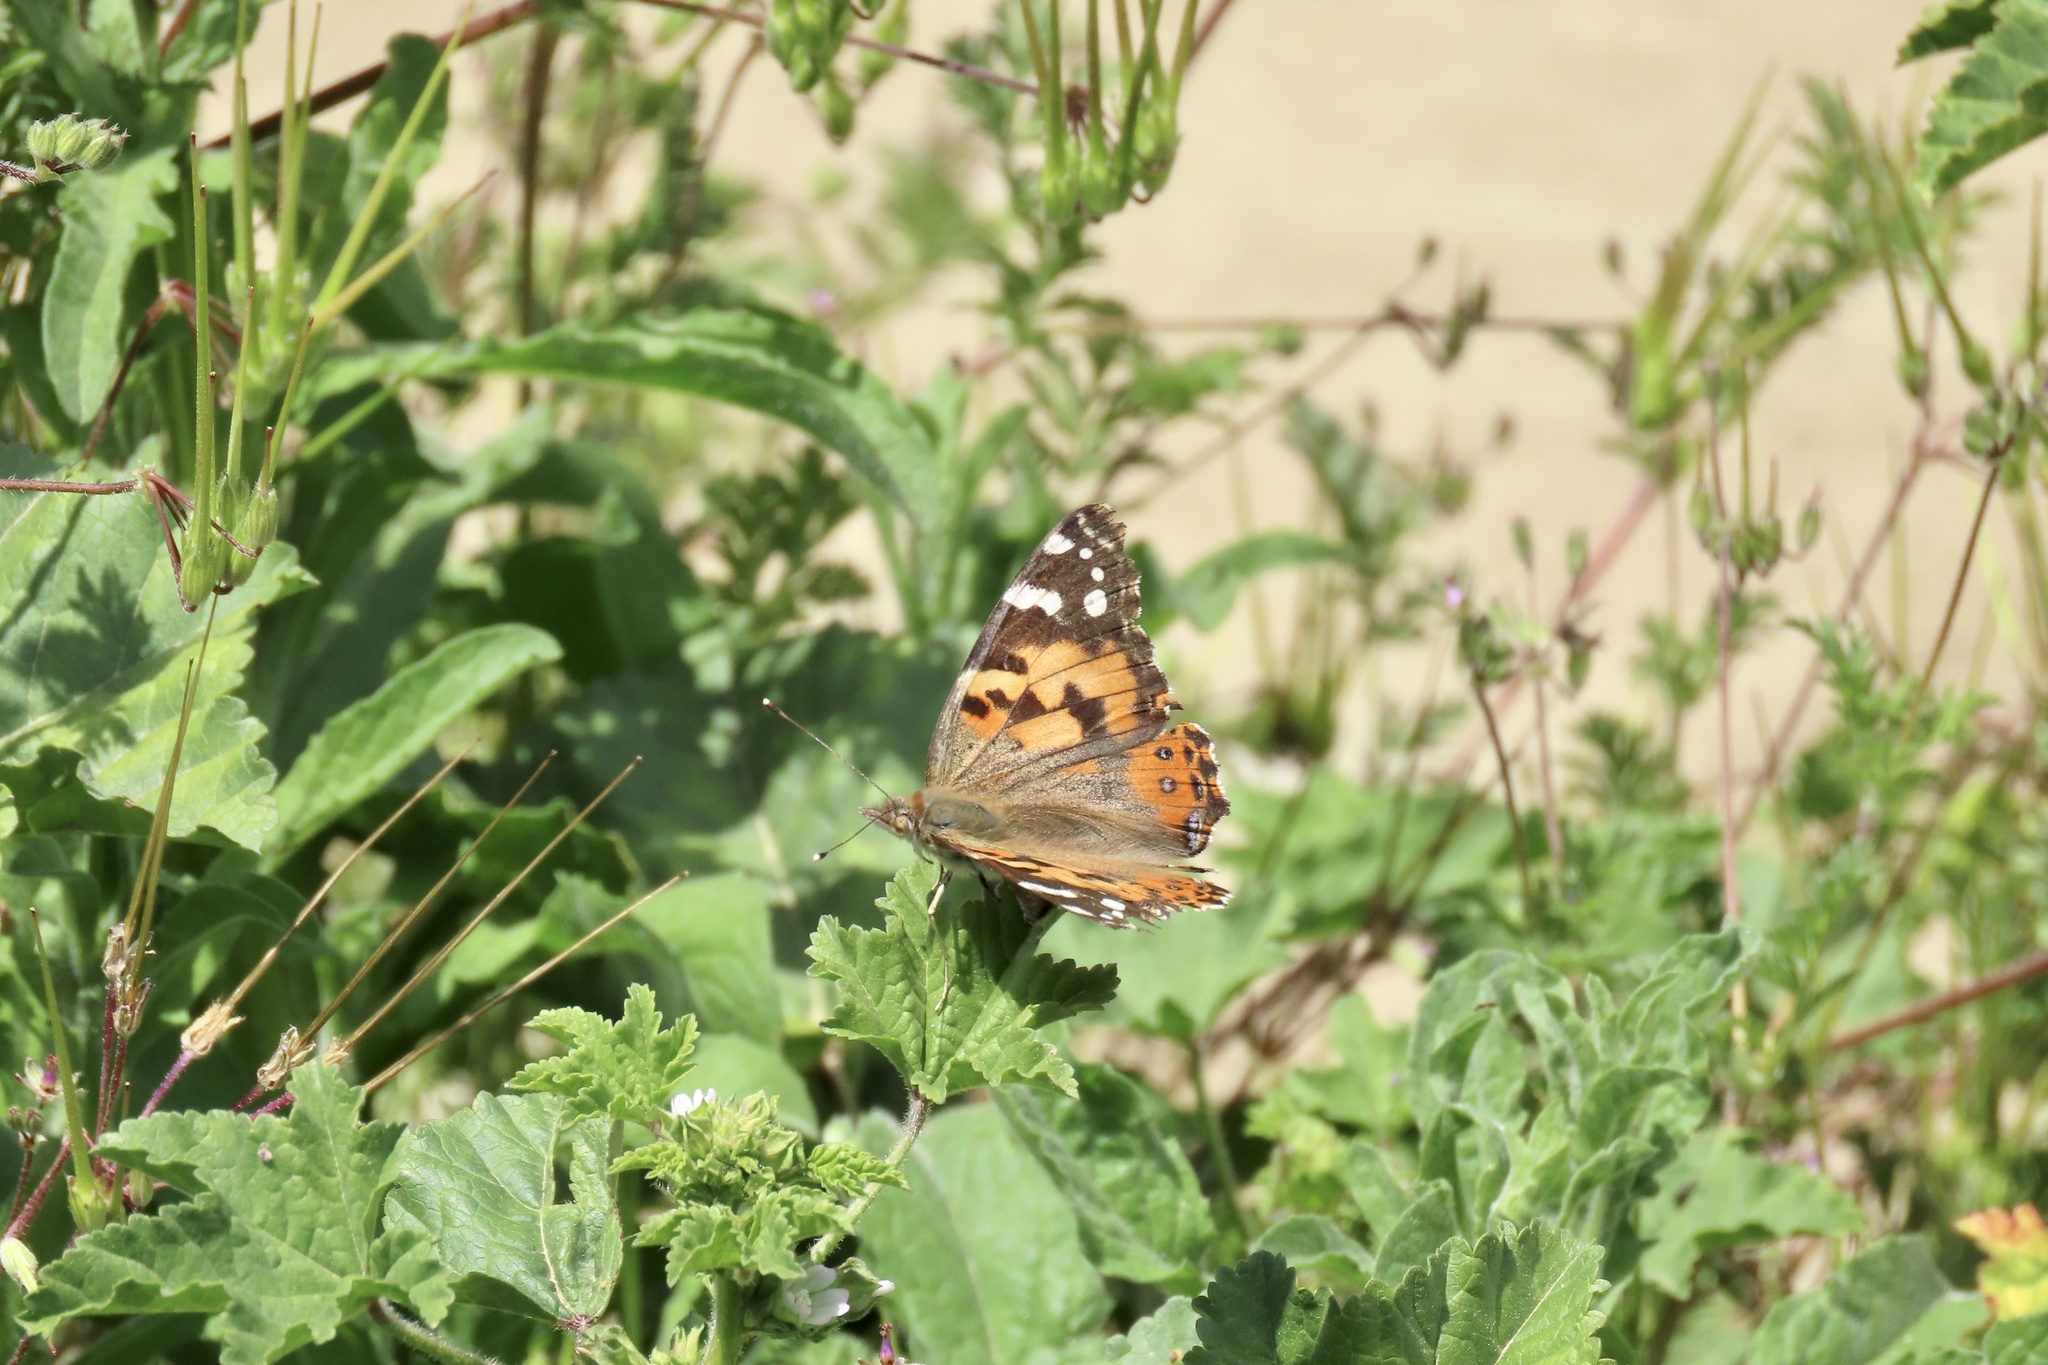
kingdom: Animalia
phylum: Arthropoda
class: Insecta
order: Lepidoptera
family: Nymphalidae
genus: Vanessa
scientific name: Vanessa cardui
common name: Painted lady
